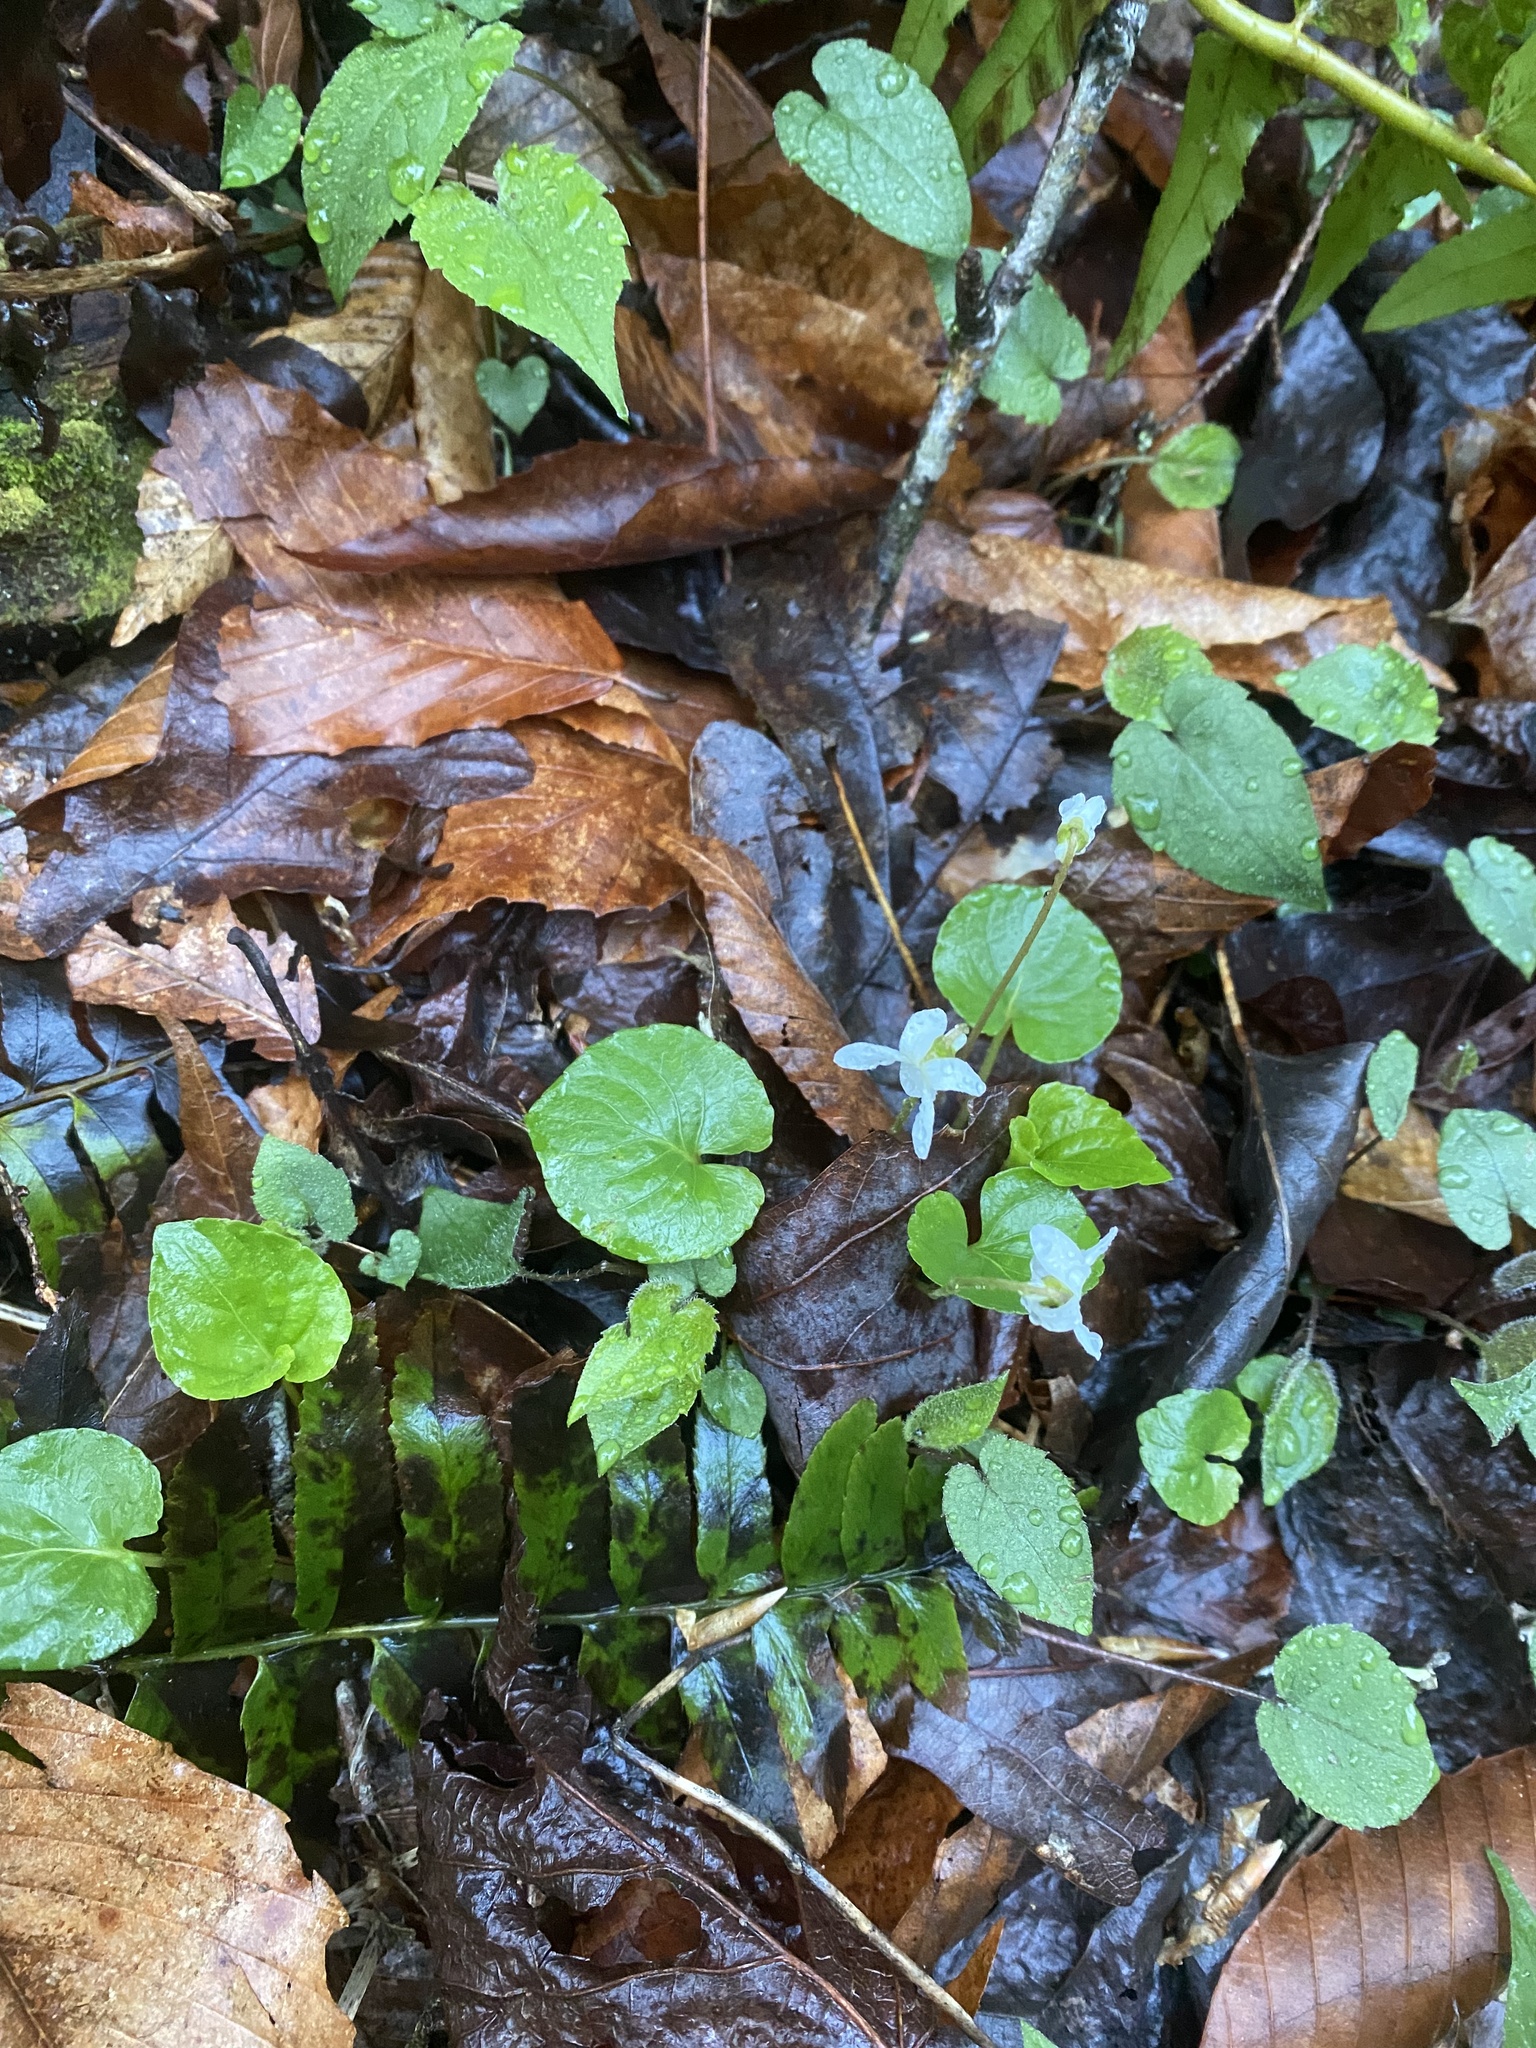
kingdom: Plantae
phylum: Tracheophyta
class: Magnoliopsida
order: Malpighiales
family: Violaceae
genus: Viola
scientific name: Viola blanda
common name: Sweet white violet
